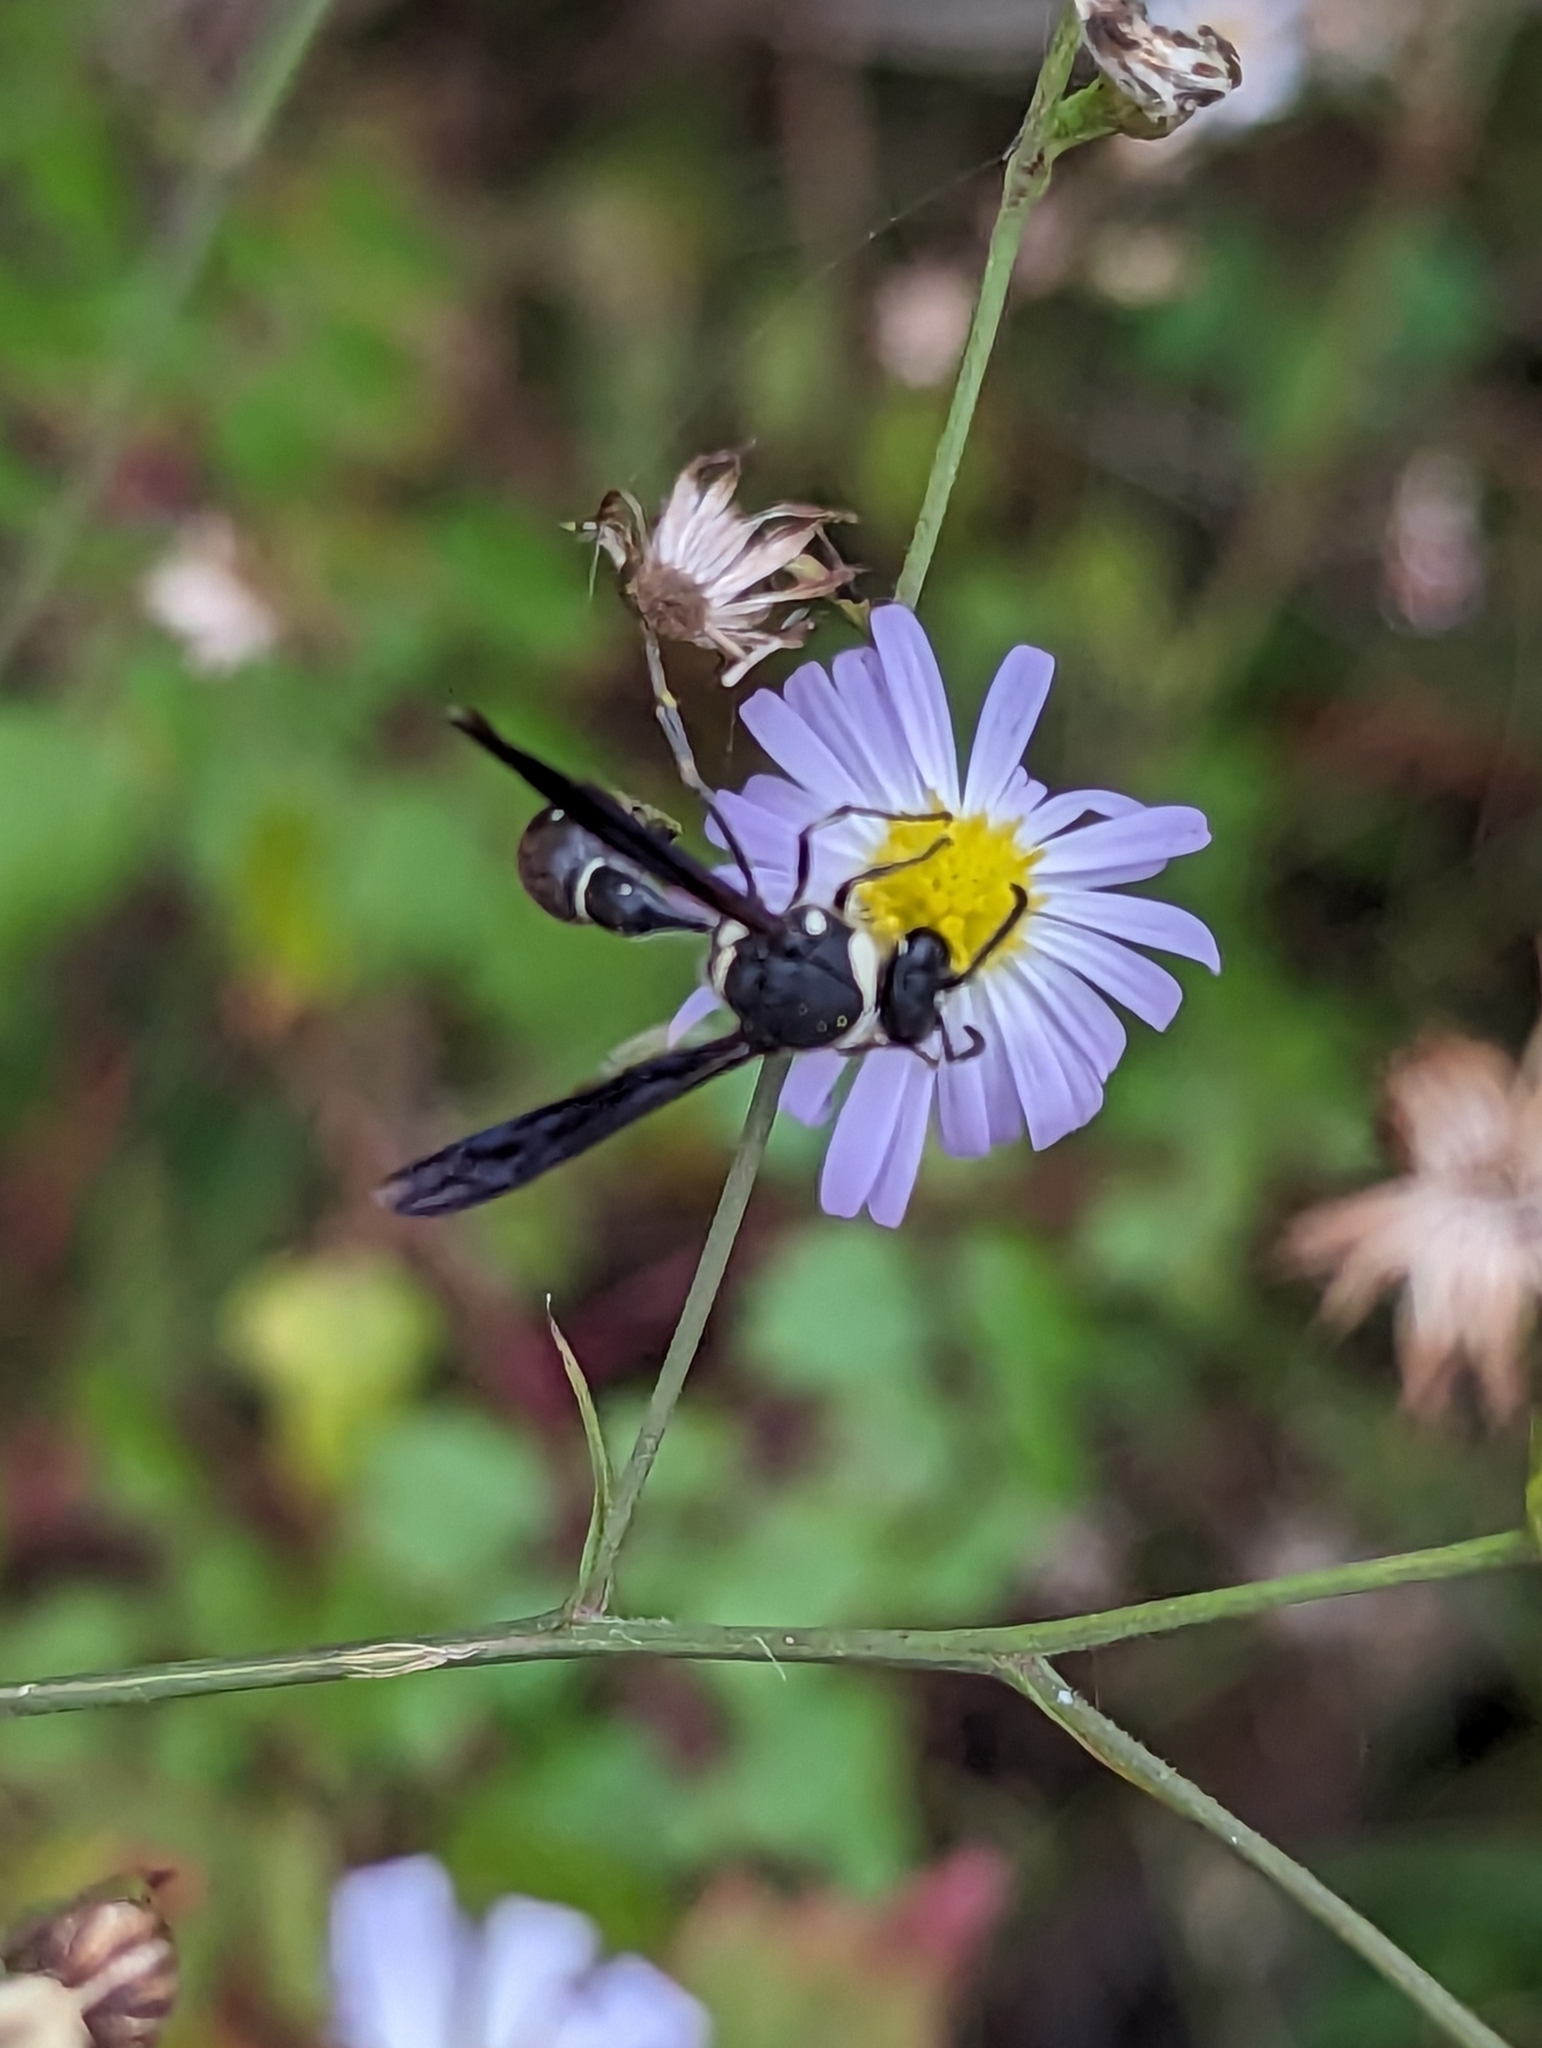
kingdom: Animalia
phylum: Arthropoda
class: Insecta
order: Hymenoptera
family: Vespidae
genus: Eumenes
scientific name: Eumenes fraternus
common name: Fraternal potter wasp
